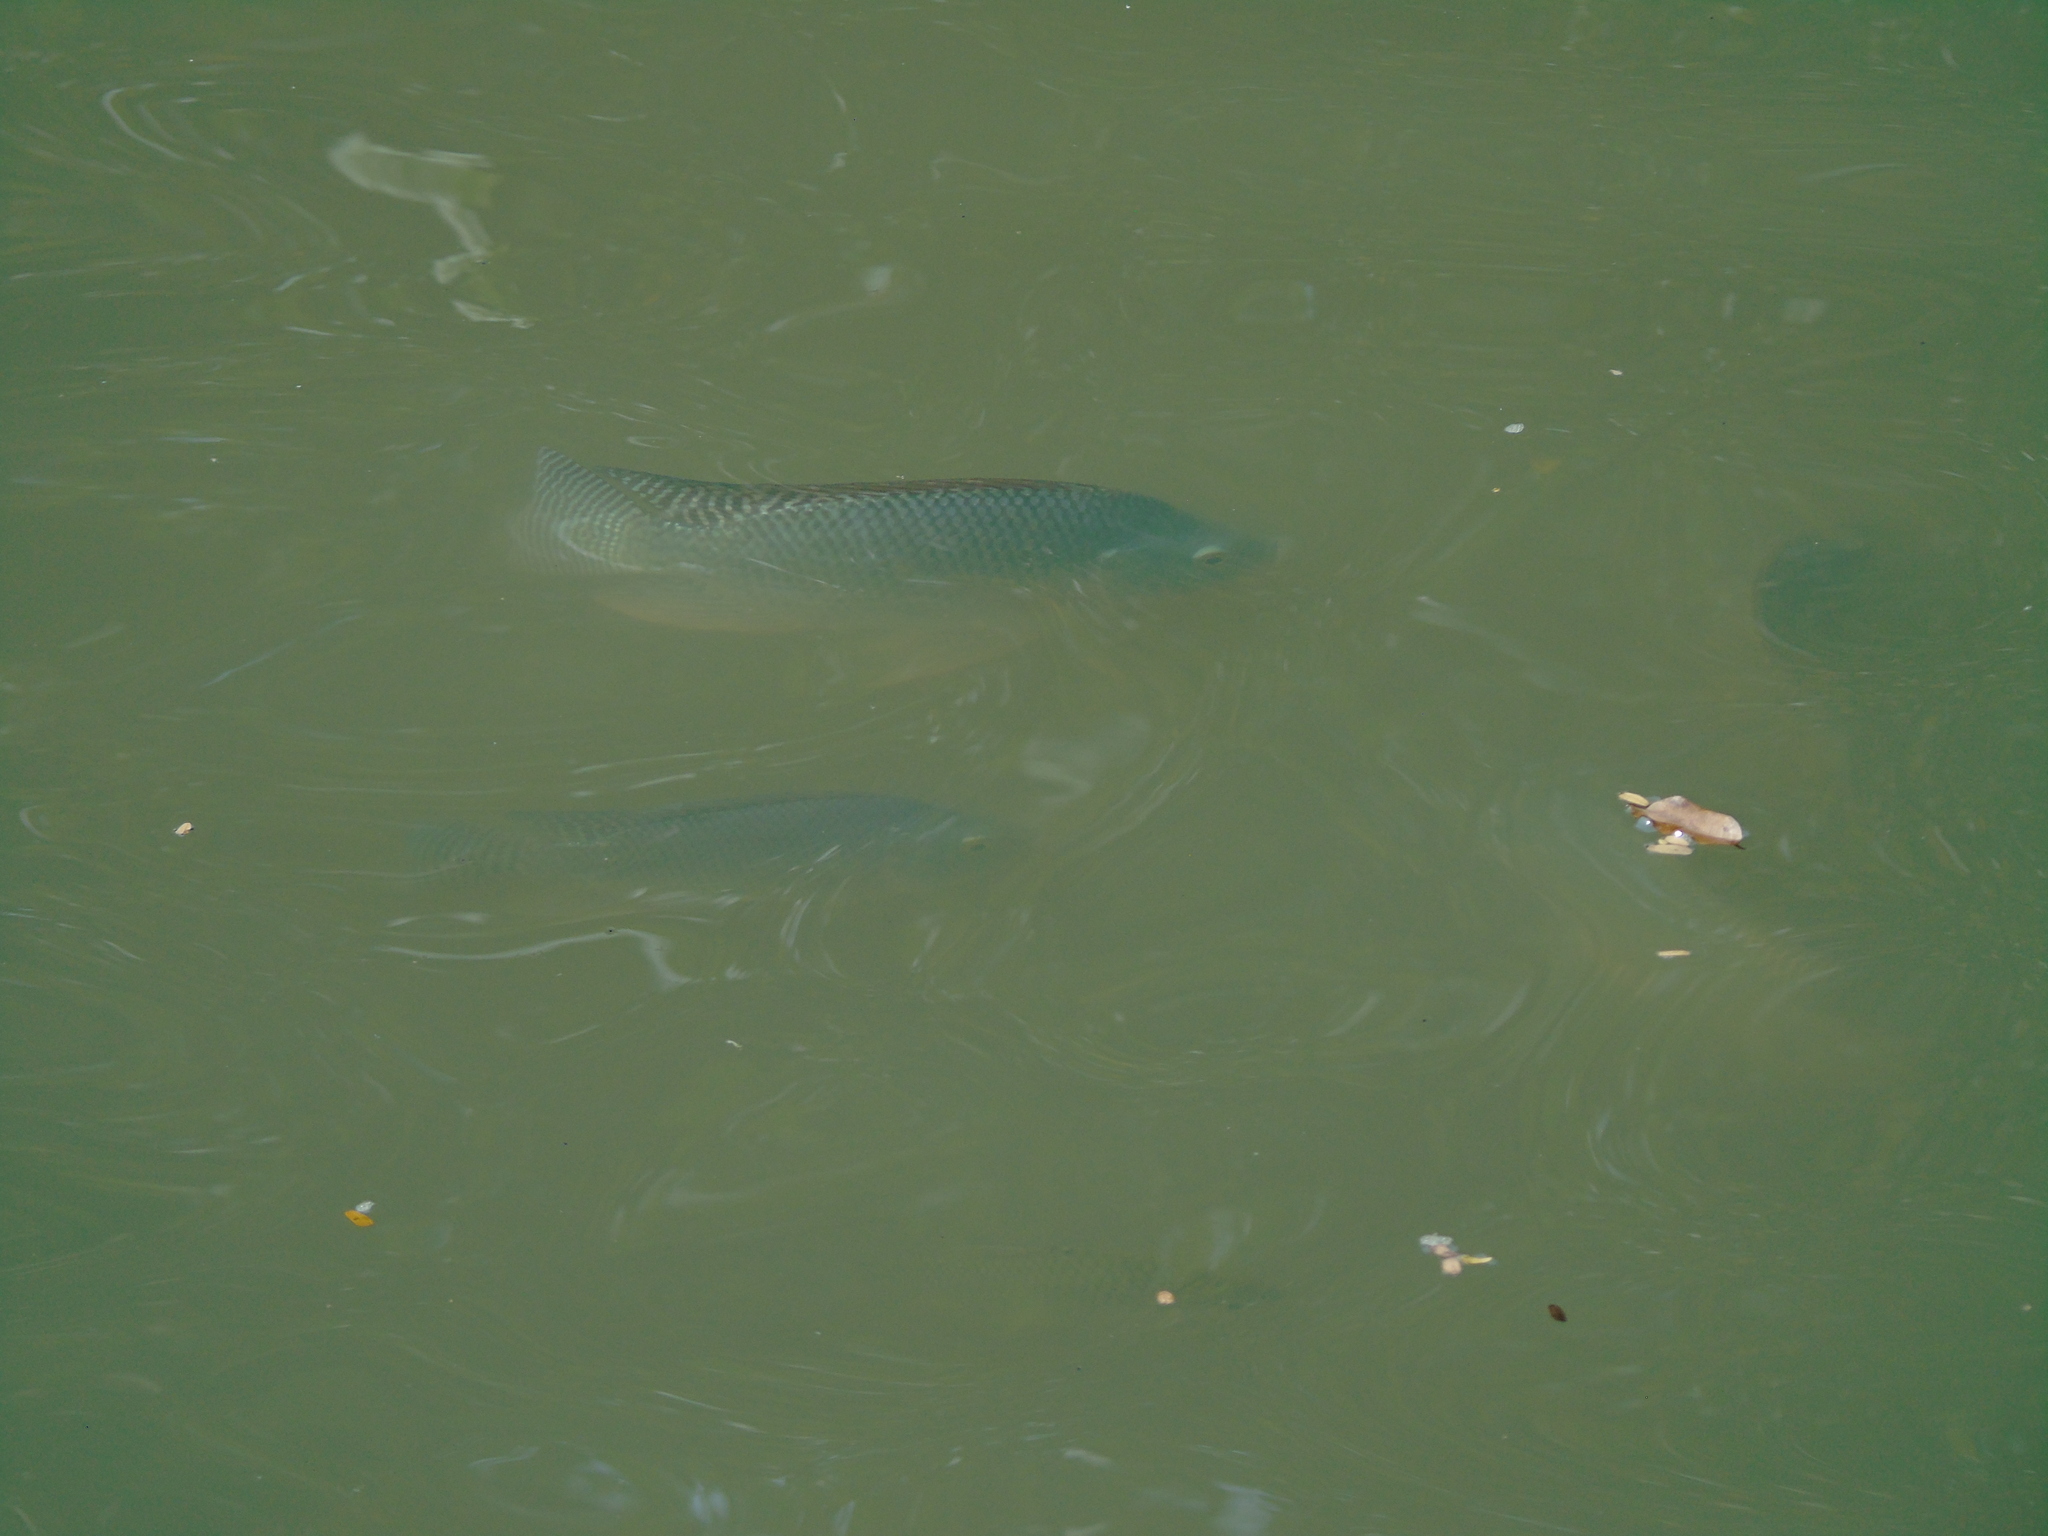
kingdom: Animalia
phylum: Chordata
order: Perciformes
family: Cichlidae
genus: Oreochromis
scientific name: Oreochromis niloticus
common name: Nile tilapia
